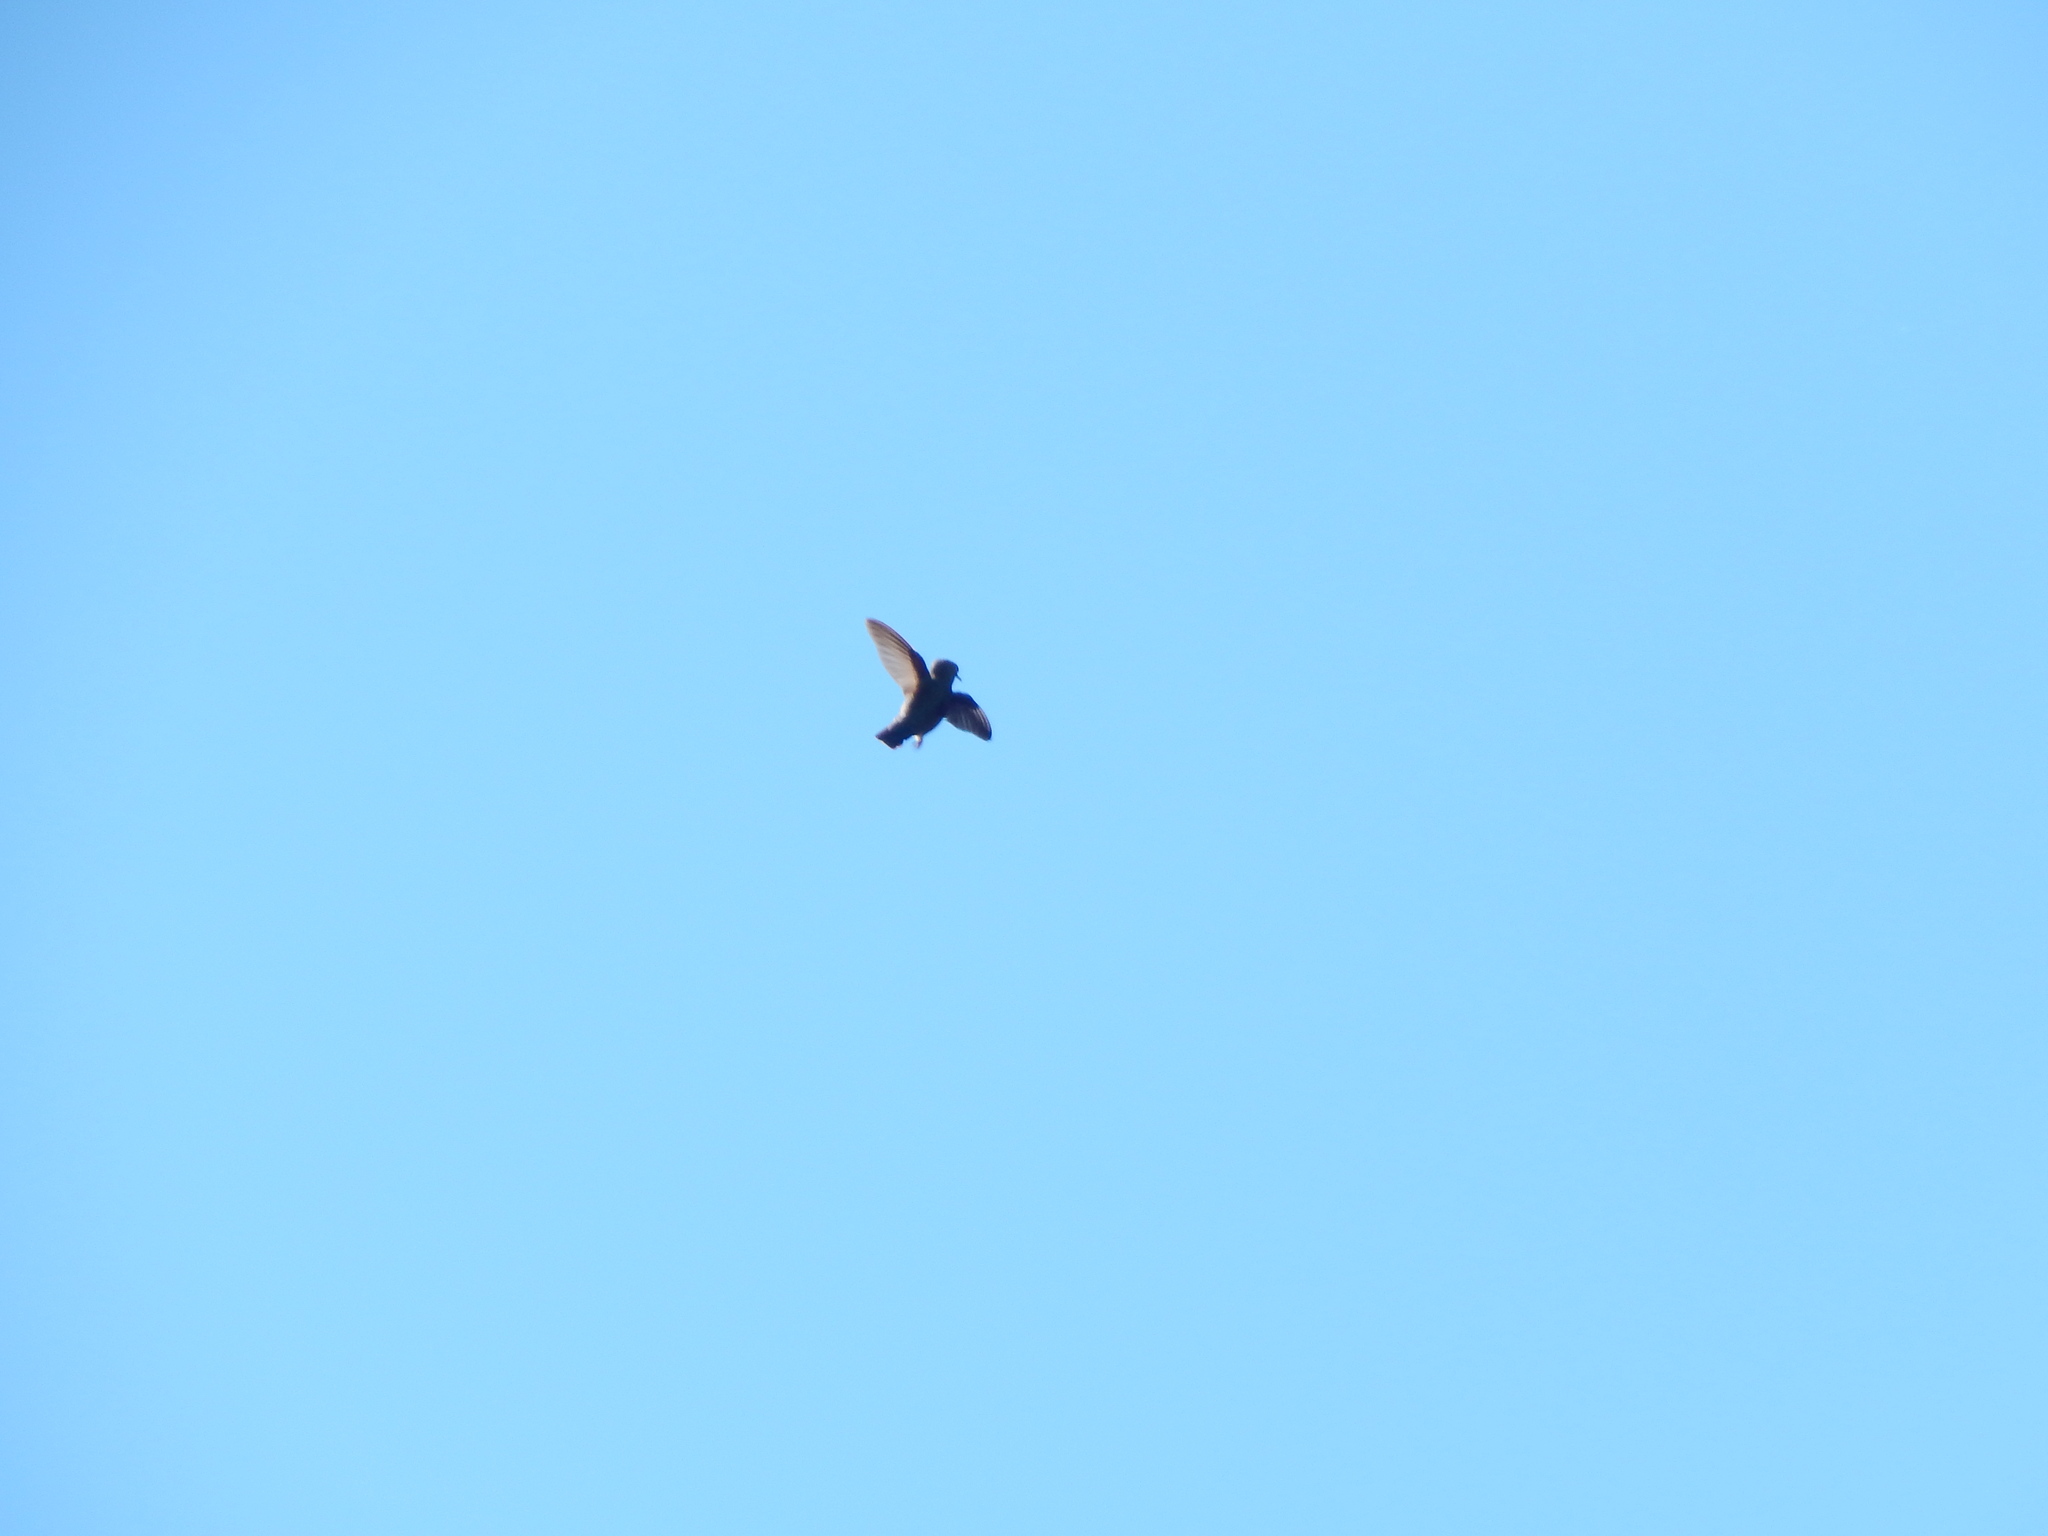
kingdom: Animalia
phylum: Chordata
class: Aves
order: Apodiformes
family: Trochilidae
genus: Calypte
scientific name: Calypte anna
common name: Anna's hummingbird
